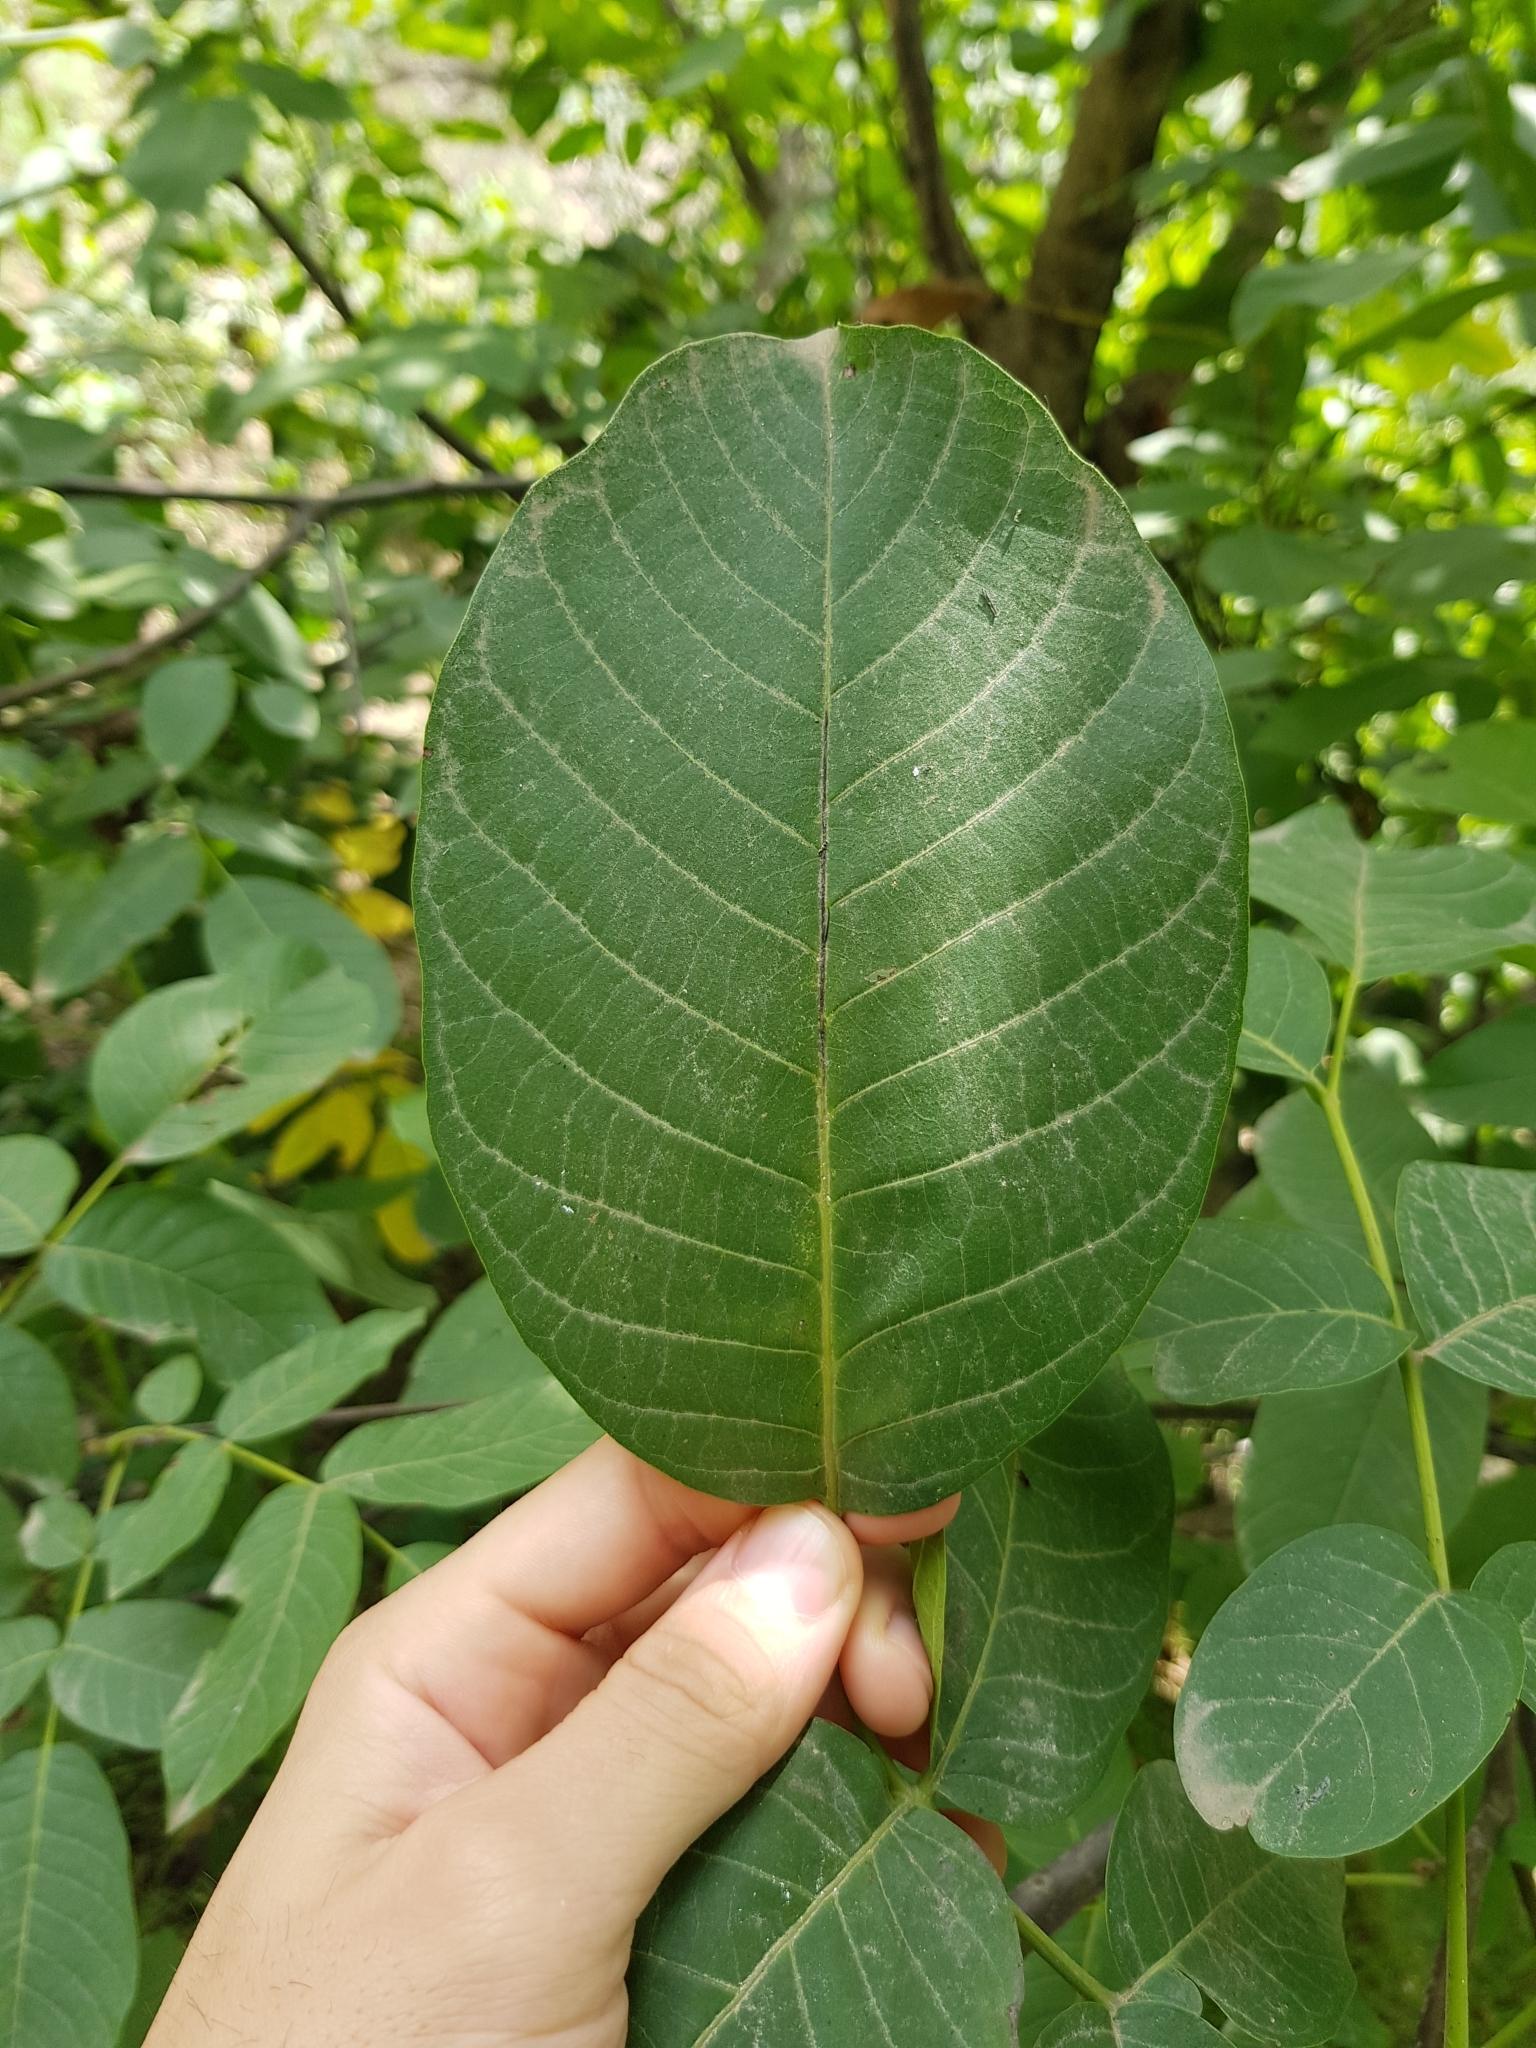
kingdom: Plantae
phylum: Tracheophyta
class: Magnoliopsida
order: Fagales
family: Juglandaceae
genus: Juglans
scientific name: Juglans regia
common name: Walnut
